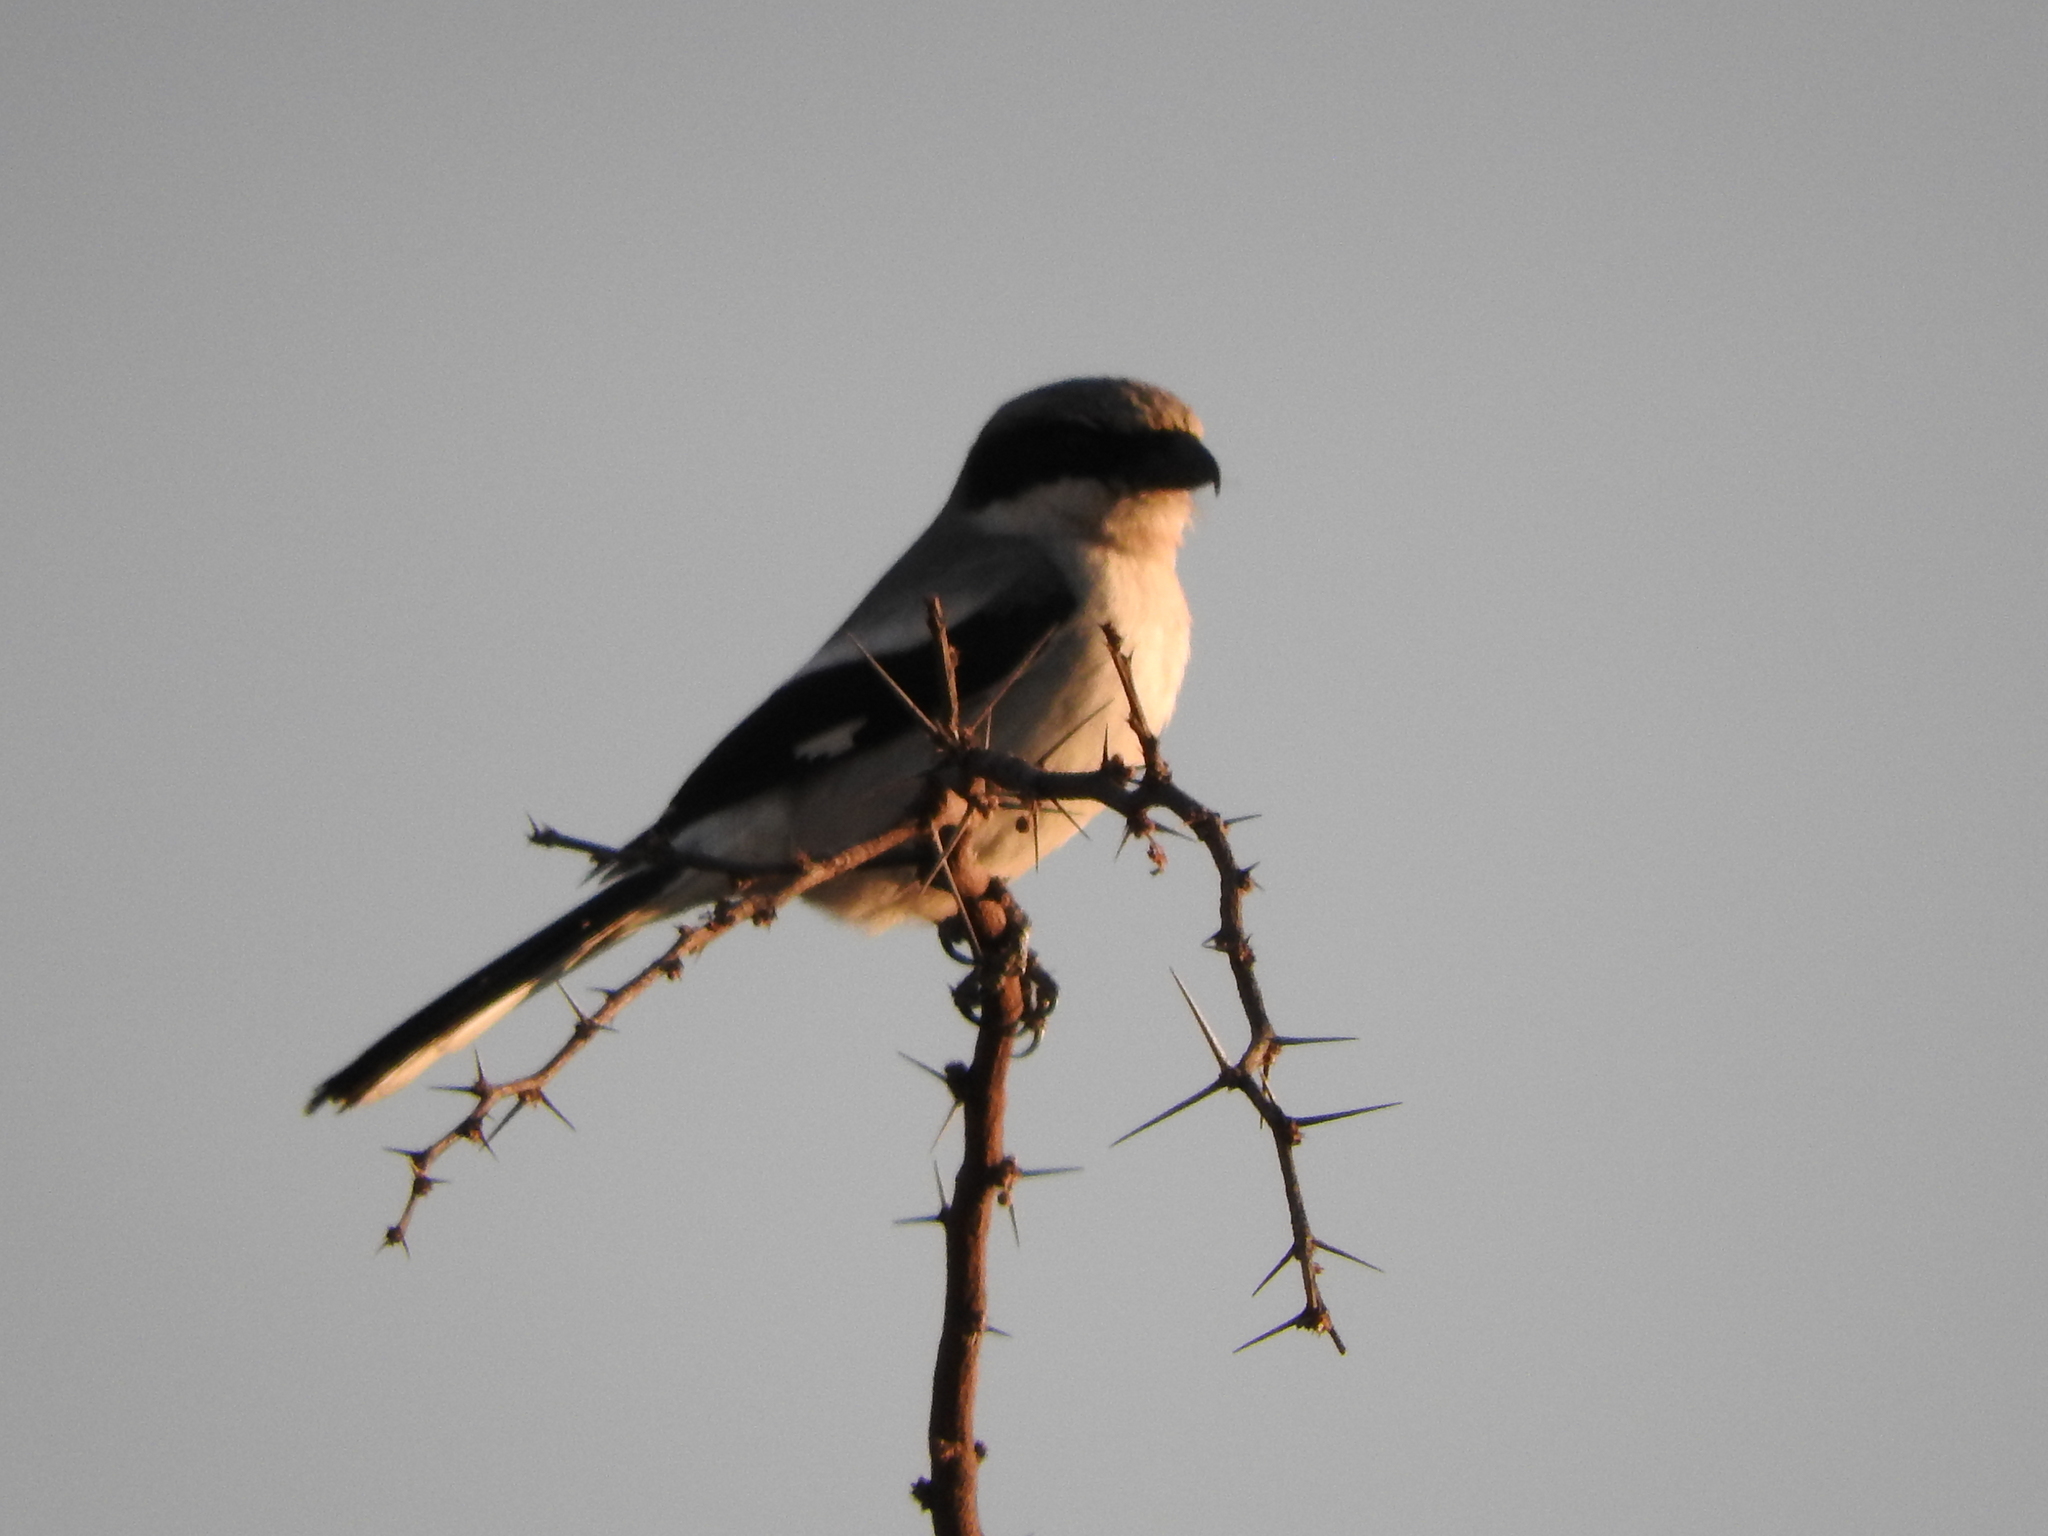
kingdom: Animalia
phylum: Chordata
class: Aves
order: Passeriformes
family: Laniidae
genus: Lanius
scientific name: Lanius ludovicianus
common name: Loggerhead shrike
